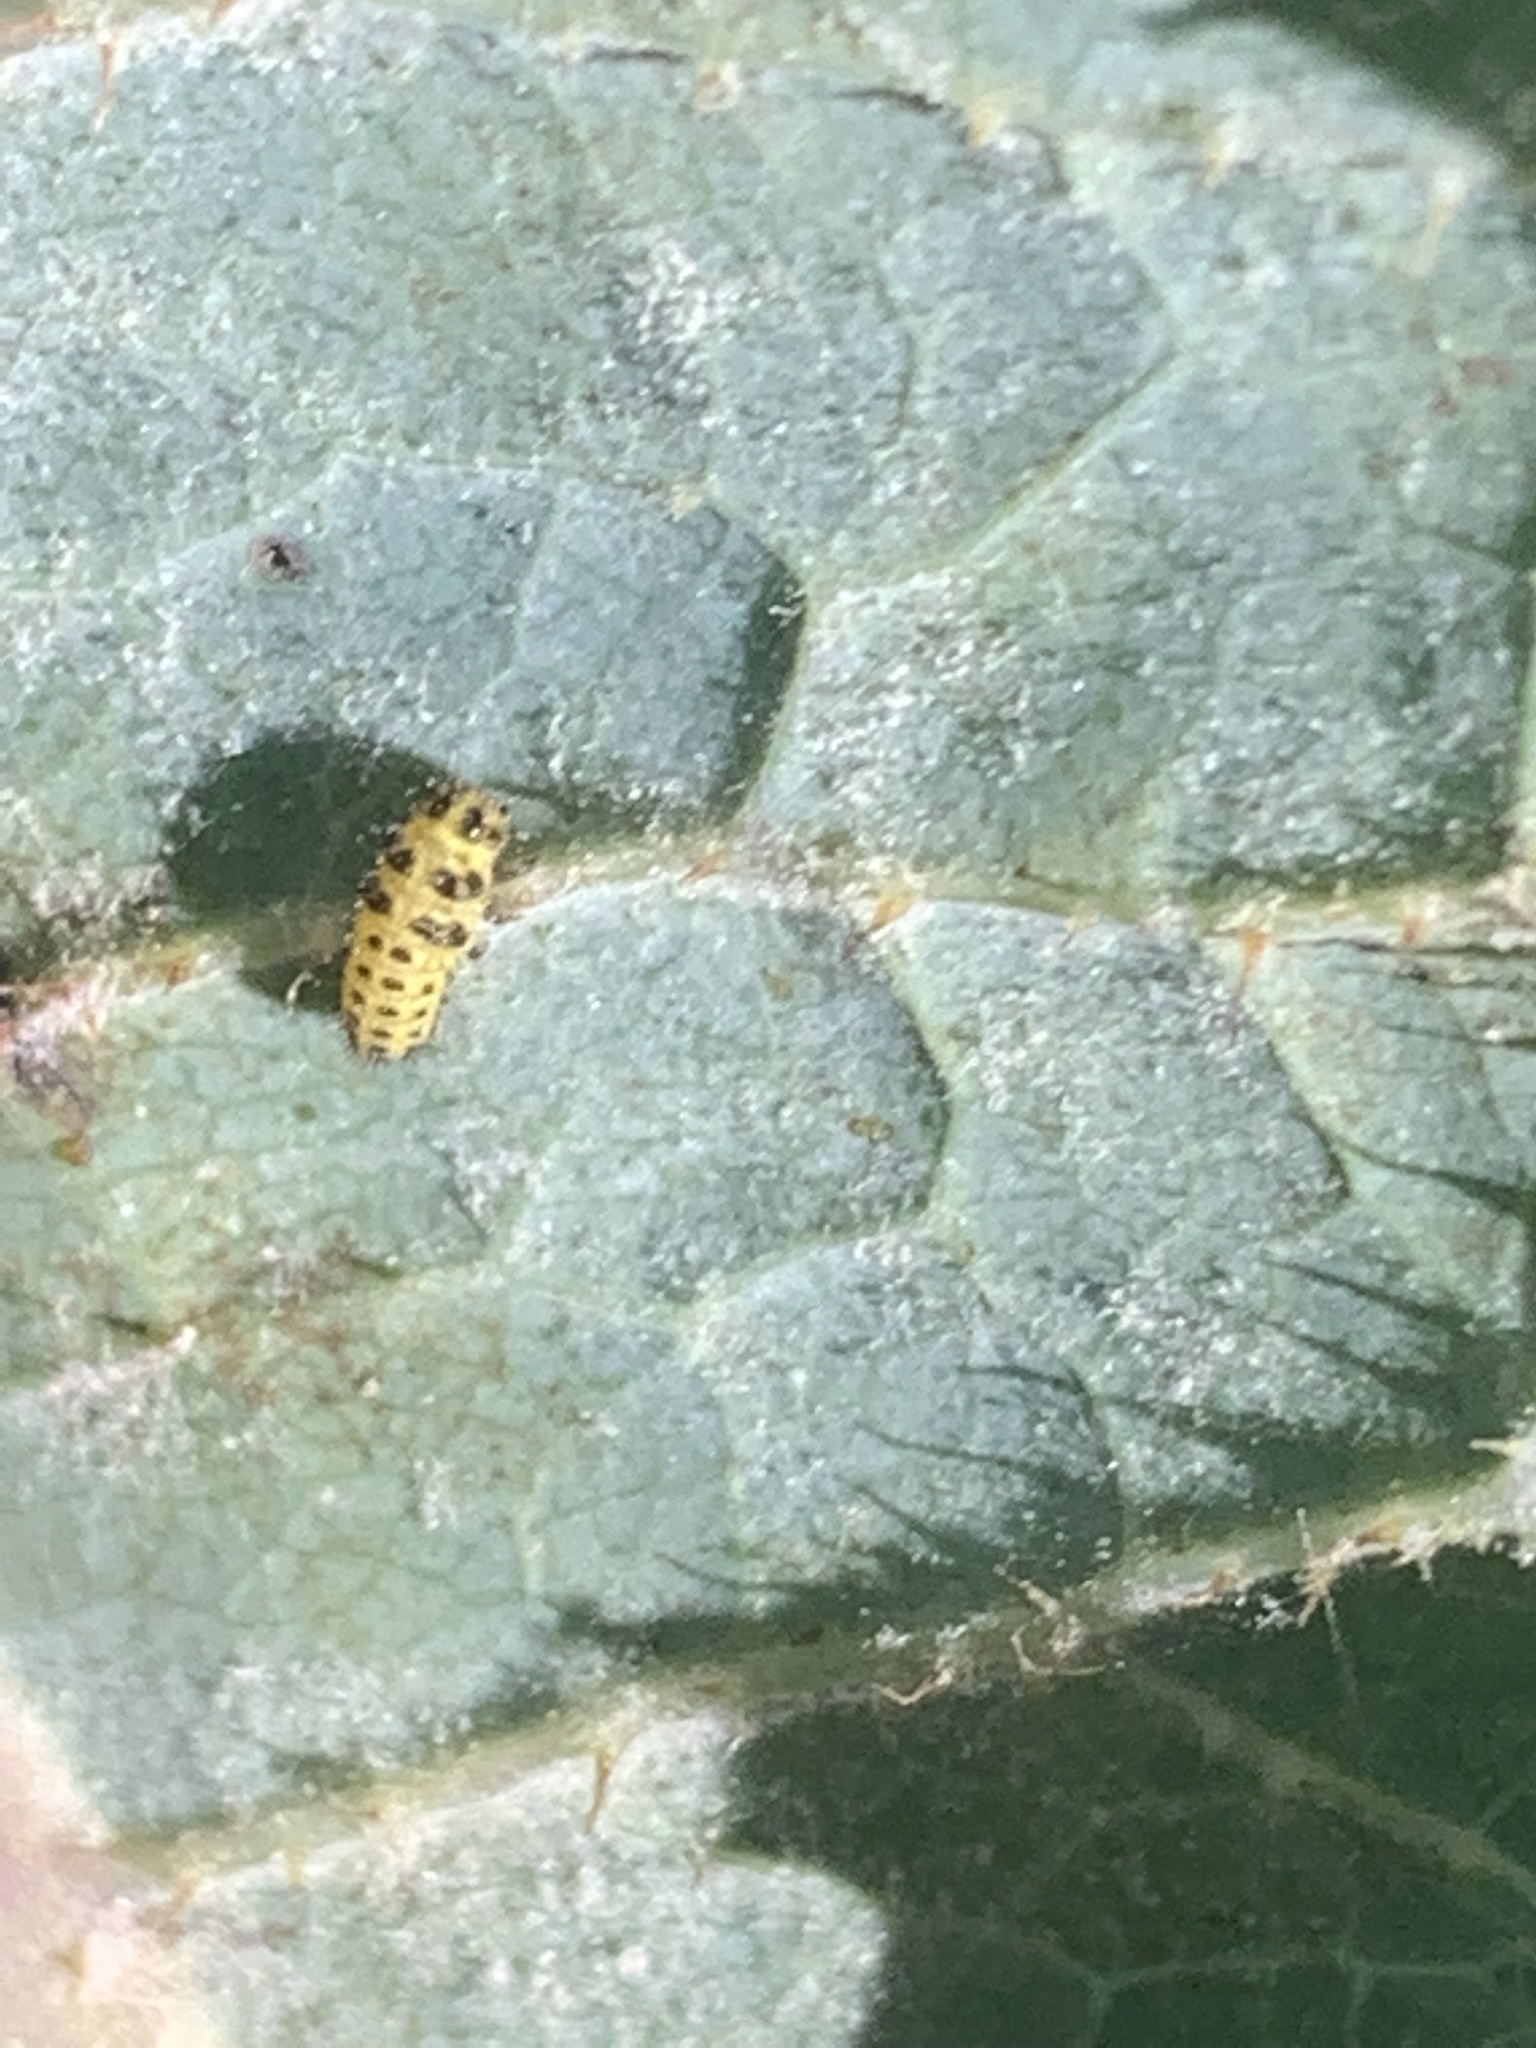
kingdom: Animalia
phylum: Arthropoda
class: Insecta
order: Coleoptera
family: Coccinellidae
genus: Psyllobora
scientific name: Psyllobora vigintiduopunctata
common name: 22-spot ladybird
